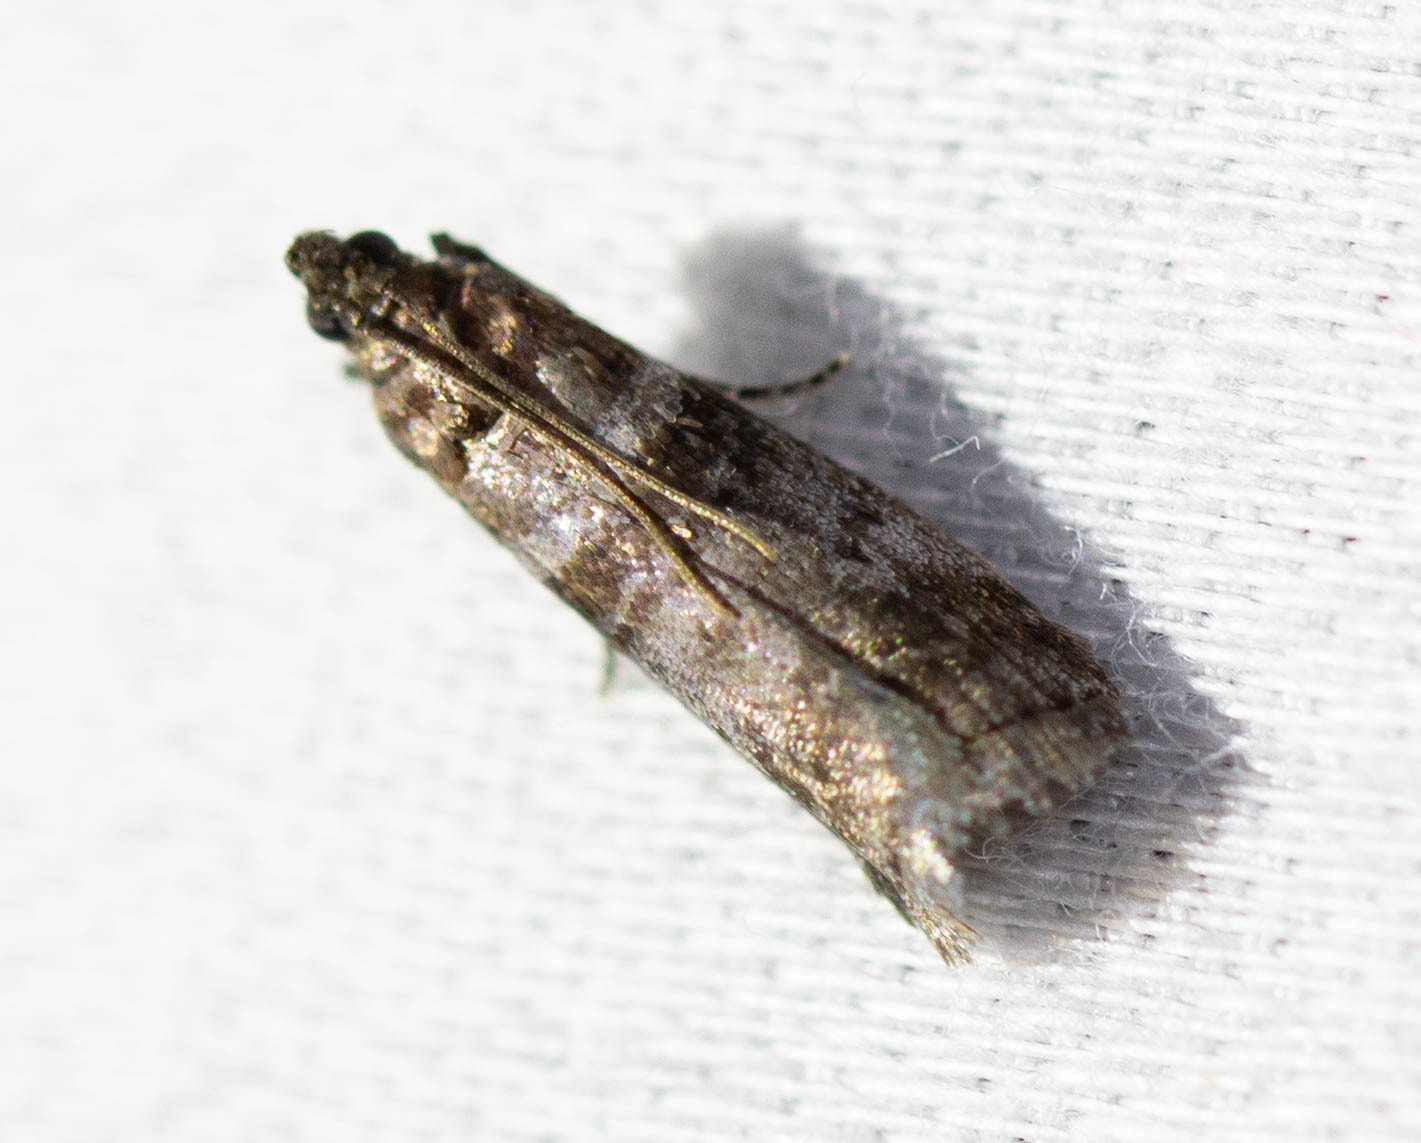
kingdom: Animalia
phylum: Arthropoda
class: Insecta
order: Lepidoptera
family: Pyralidae
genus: Sciota
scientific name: Sciota uvinella
